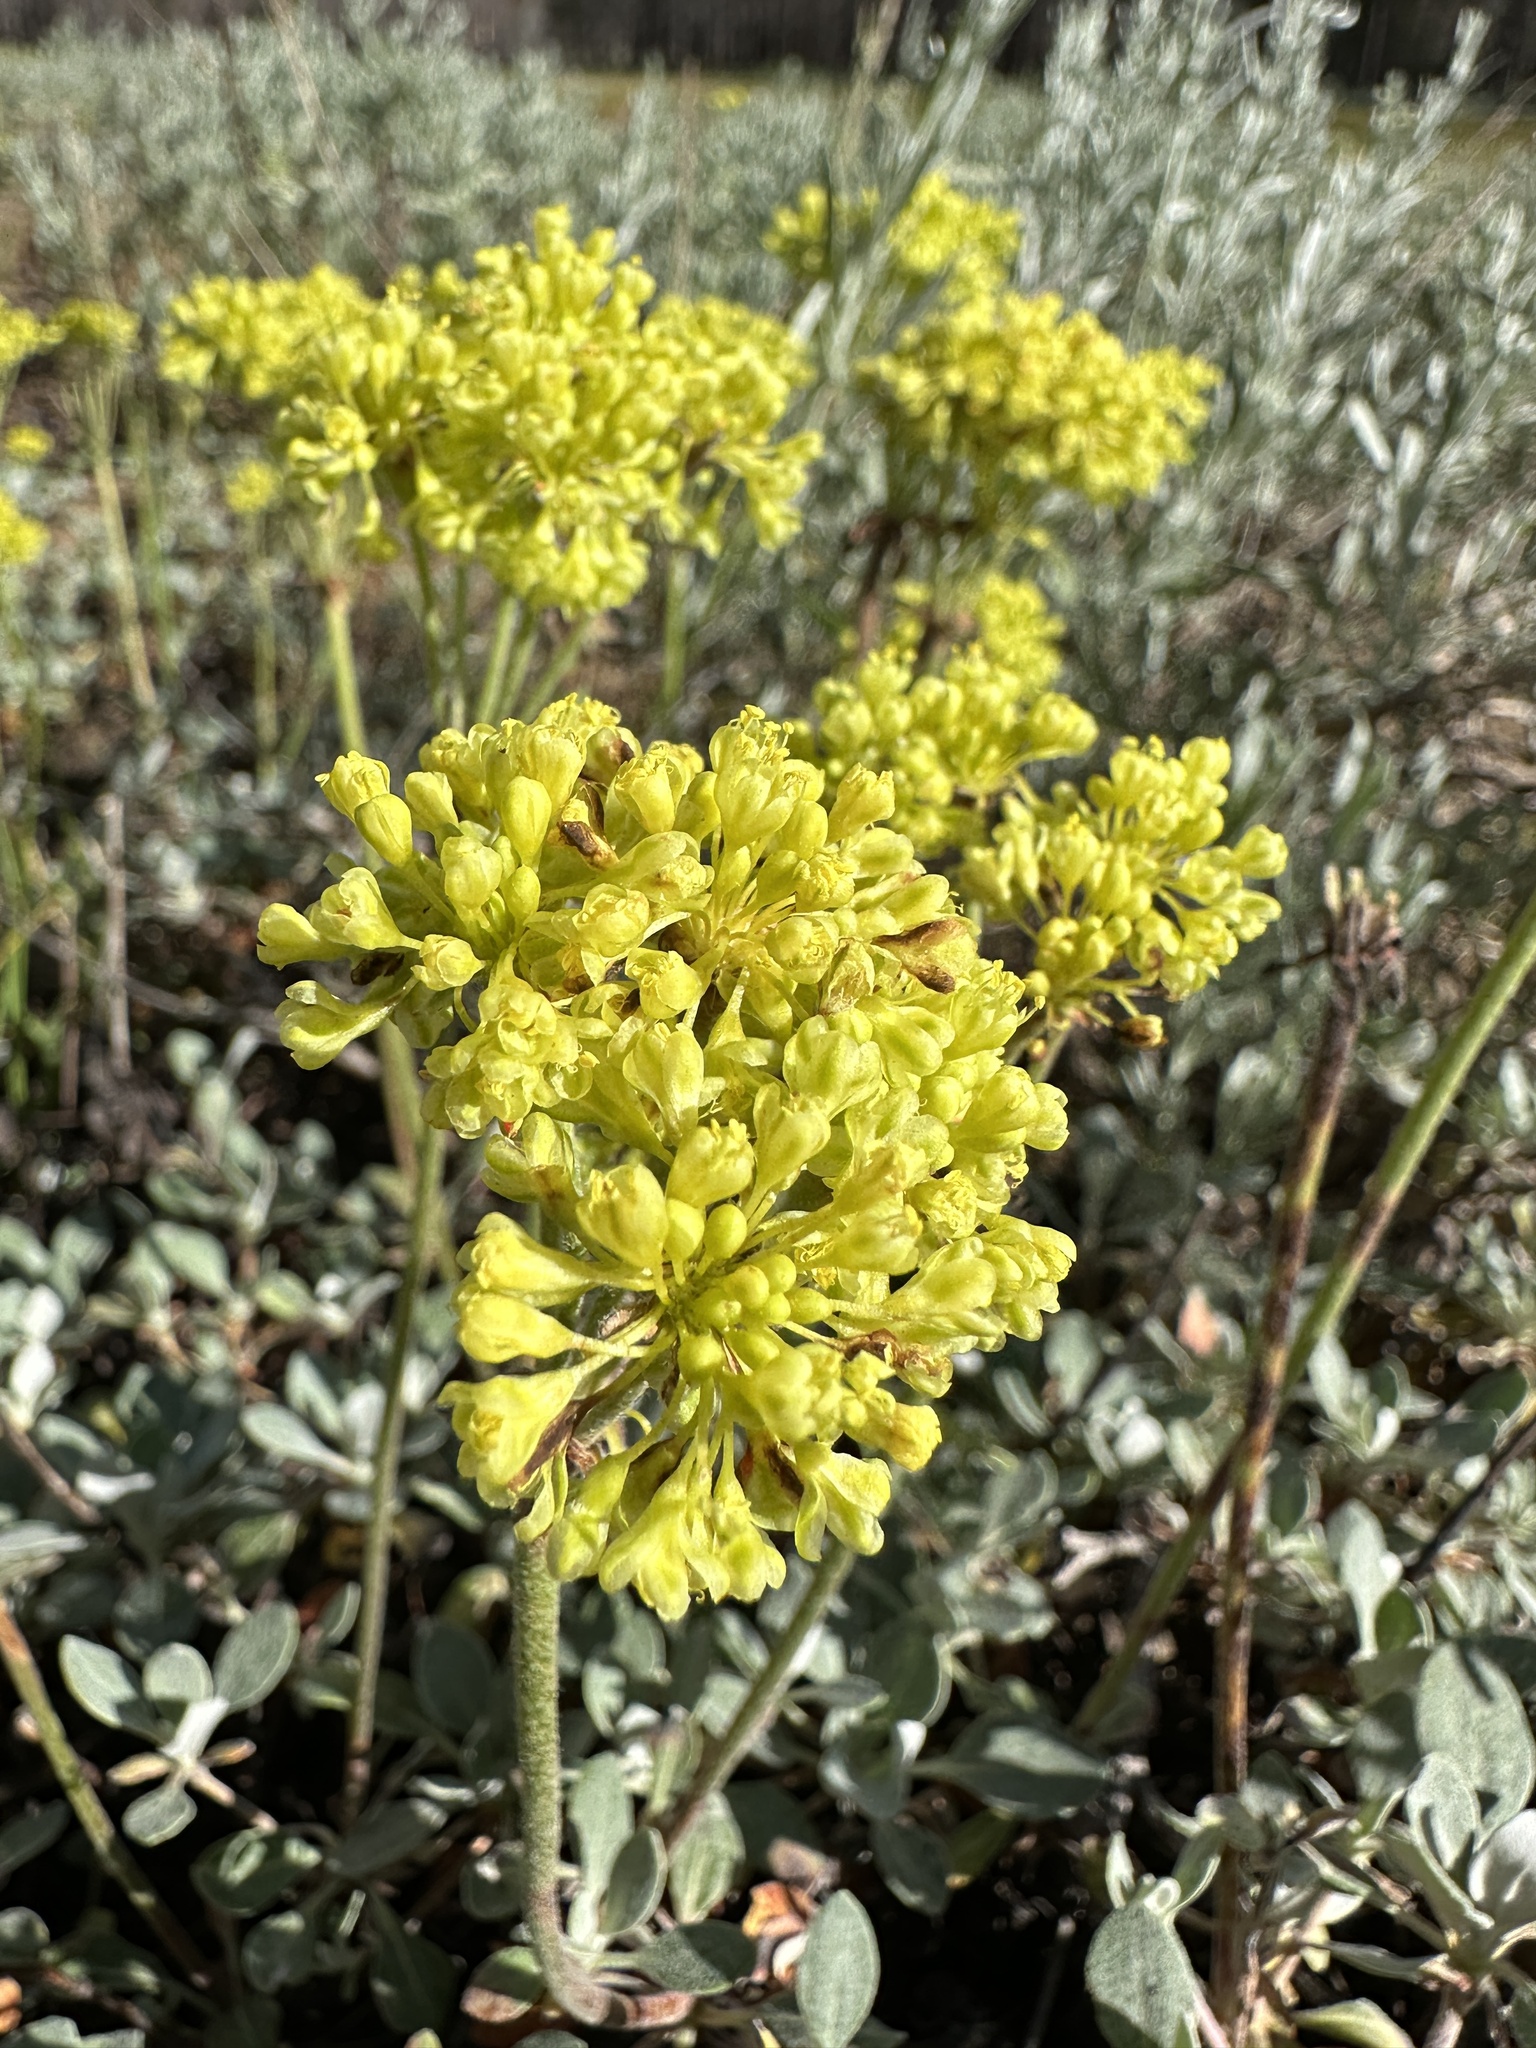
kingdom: Plantae
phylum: Tracheophyta
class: Magnoliopsida
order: Caryophyllales
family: Polygonaceae
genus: Eriogonum
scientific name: Eriogonum umbellatum
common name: Sulfur-buckwheat
